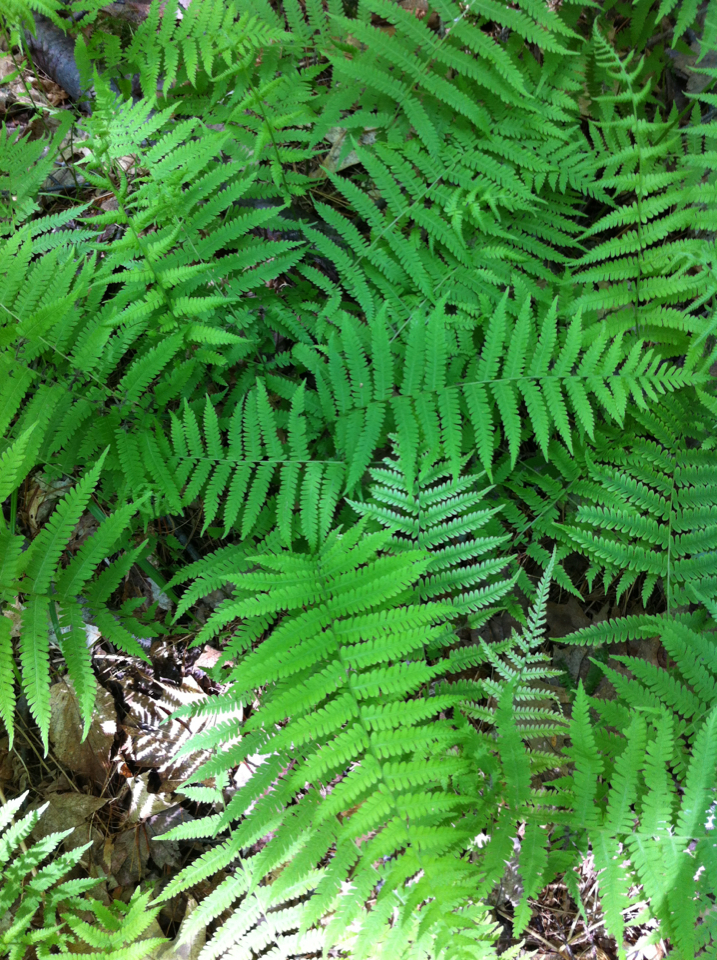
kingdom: Plantae
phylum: Tracheophyta
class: Polypodiopsida
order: Polypodiales
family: Thelypteridaceae
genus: Amauropelta
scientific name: Amauropelta noveboracensis
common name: New york fern
